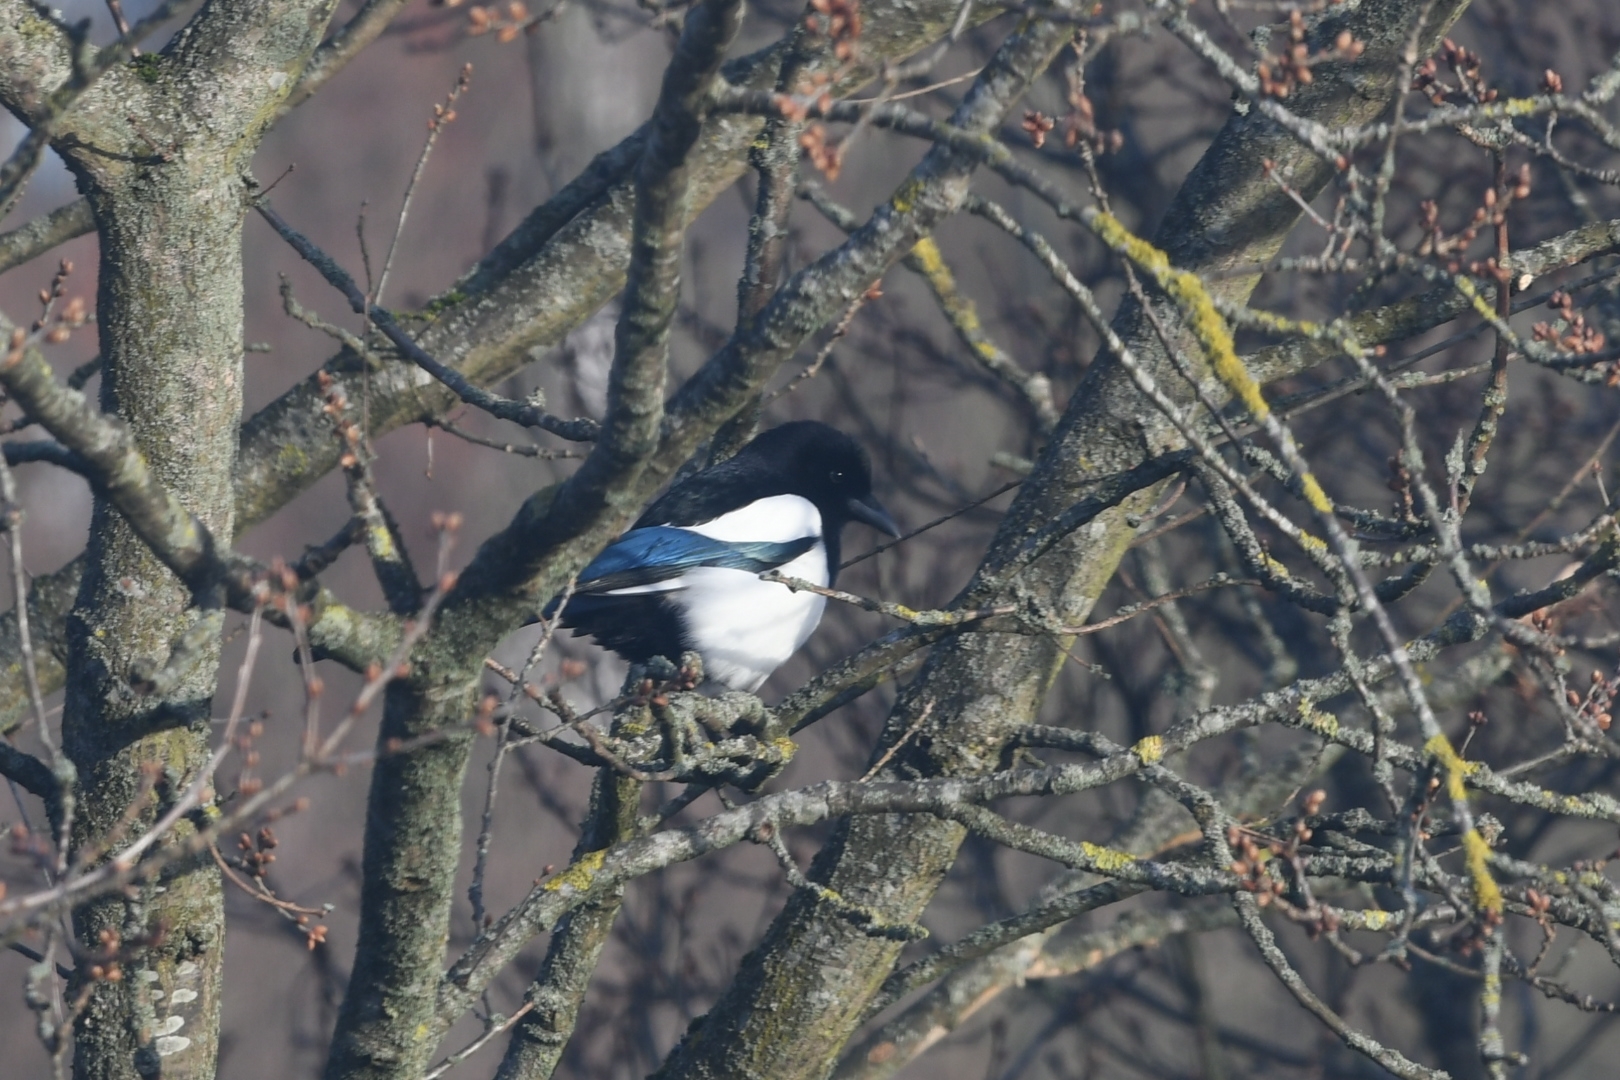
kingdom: Animalia
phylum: Chordata
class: Aves
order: Passeriformes
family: Corvidae
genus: Pica
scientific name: Pica pica
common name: Eurasian magpie
